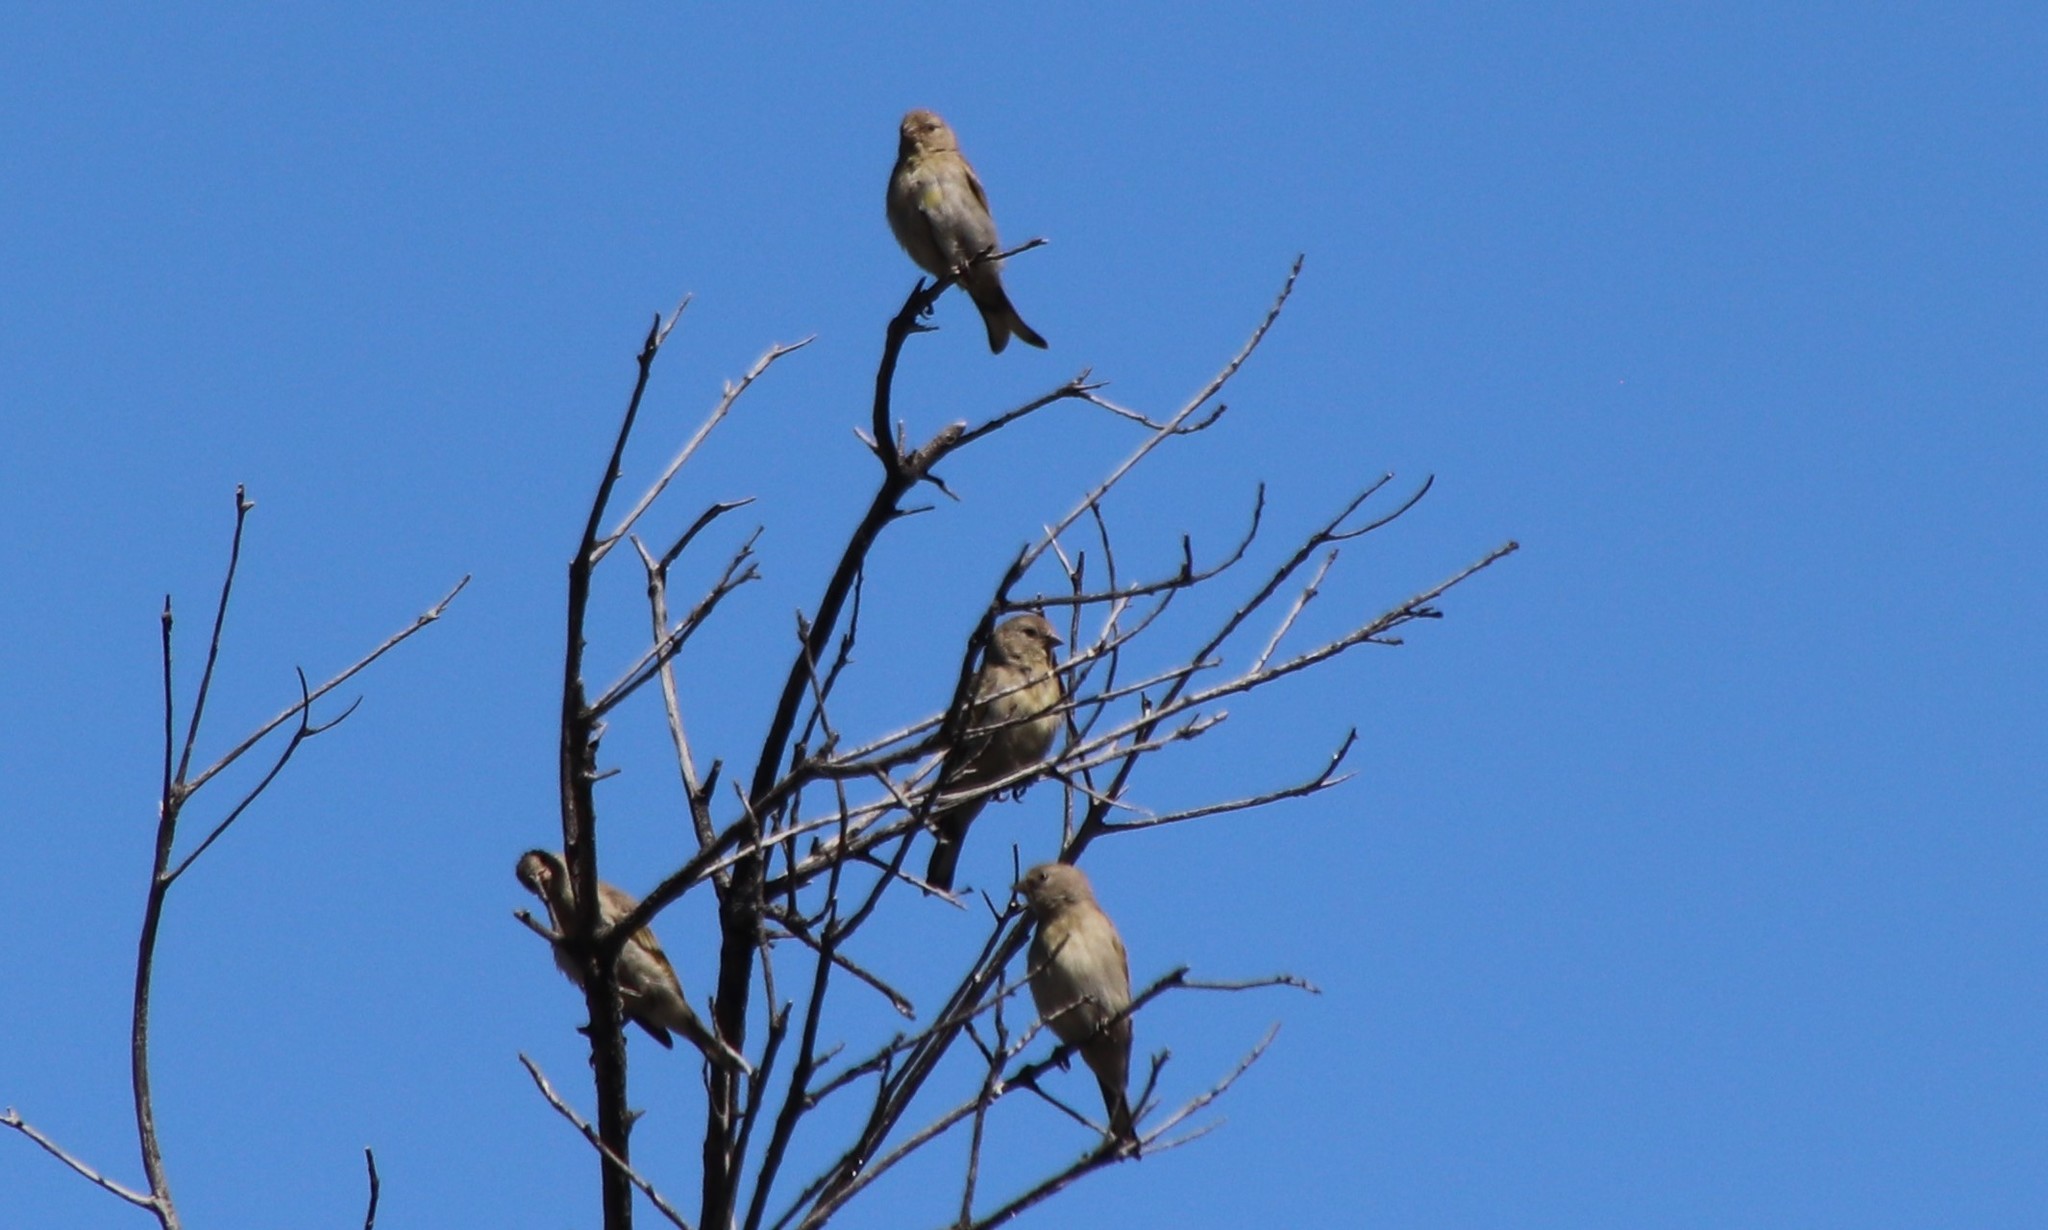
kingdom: Animalia
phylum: Chordata
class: Aves
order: Passeriformes
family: Fringillidae
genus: Spinus
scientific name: Spinus lawrencei
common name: Lawrence's goldfinch
